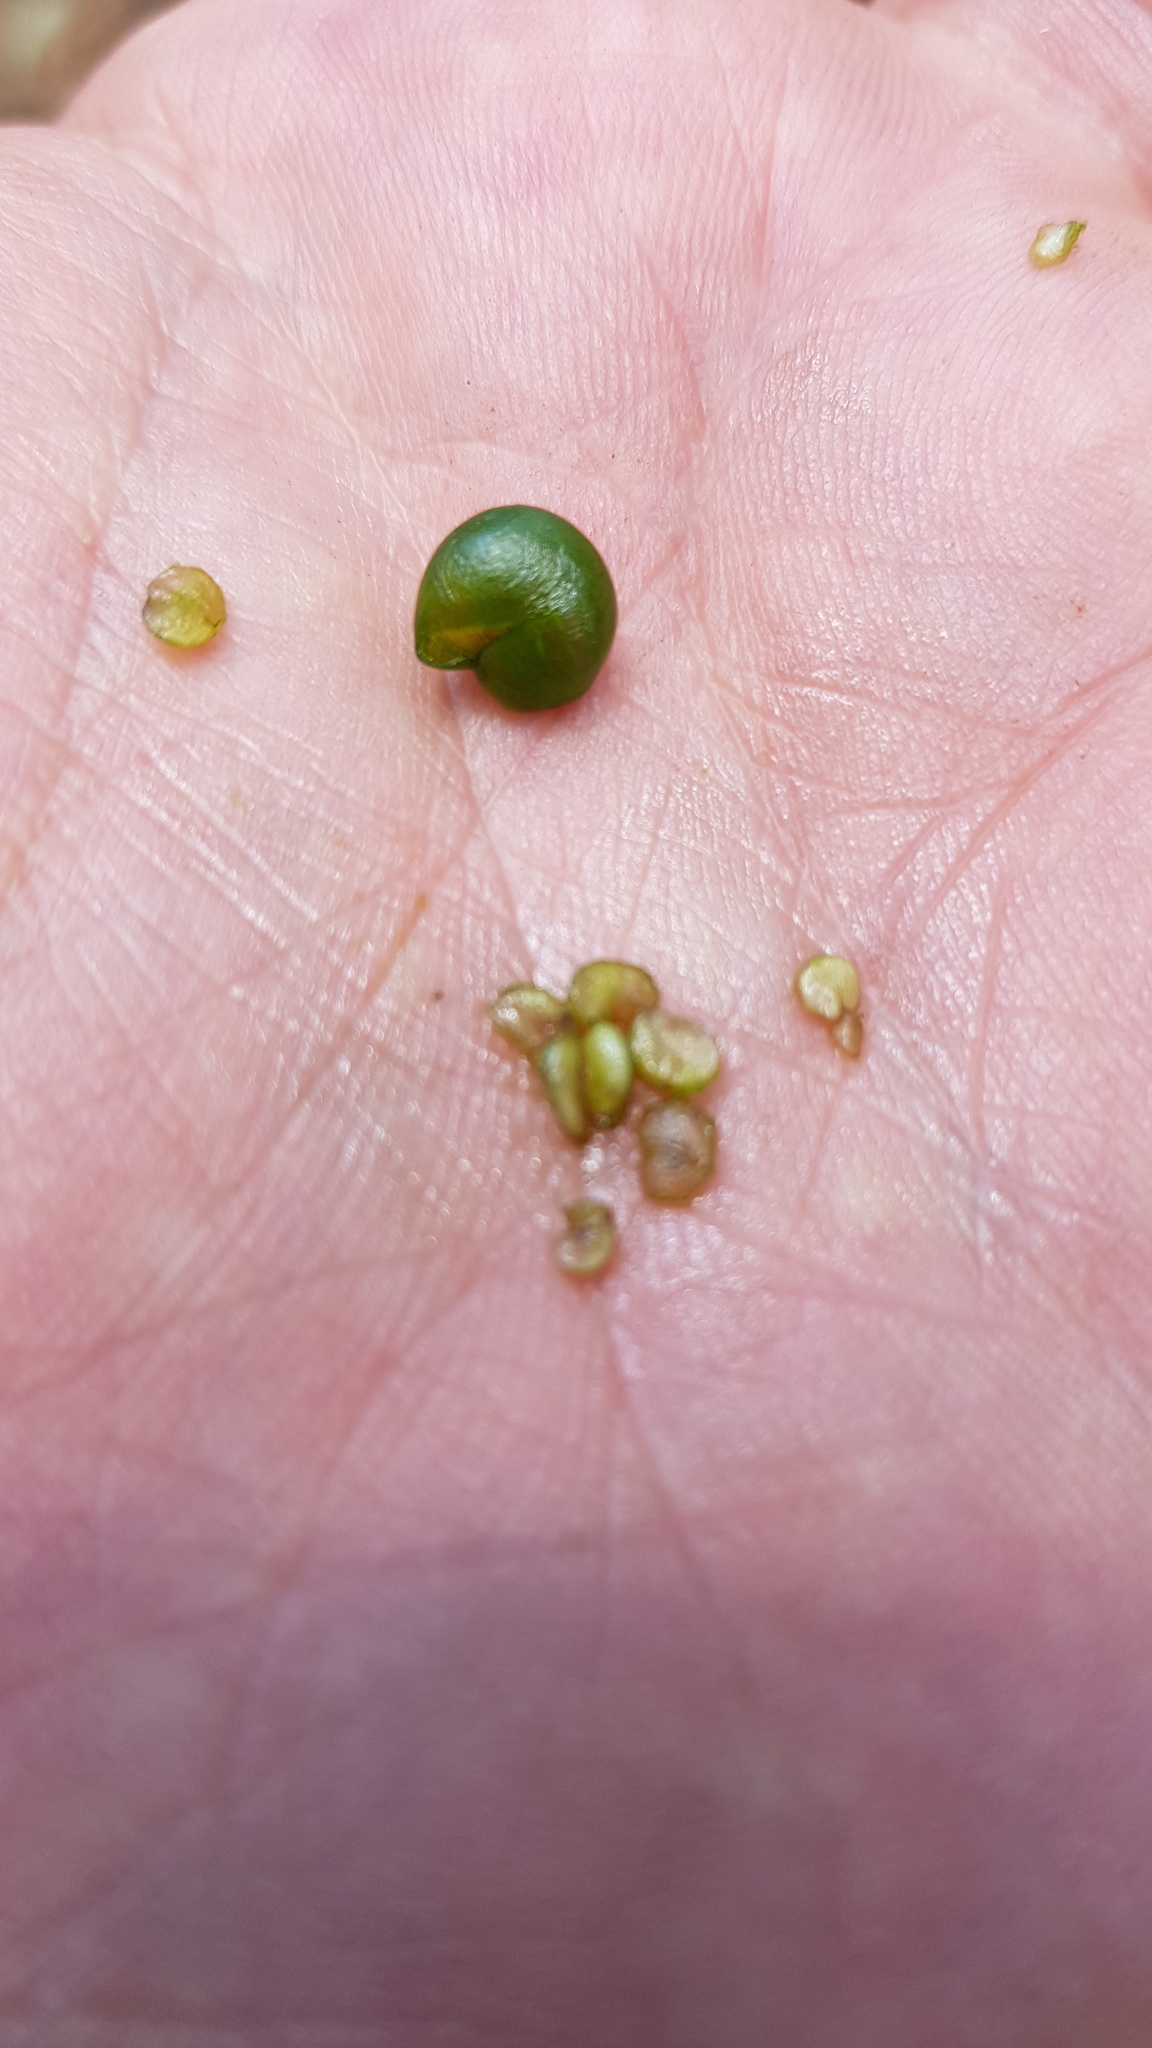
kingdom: Plantae
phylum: Tracheophyta
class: Magnoliopsida
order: Solanales
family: Solanaceae
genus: Solanum
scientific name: Solanum aligerum
